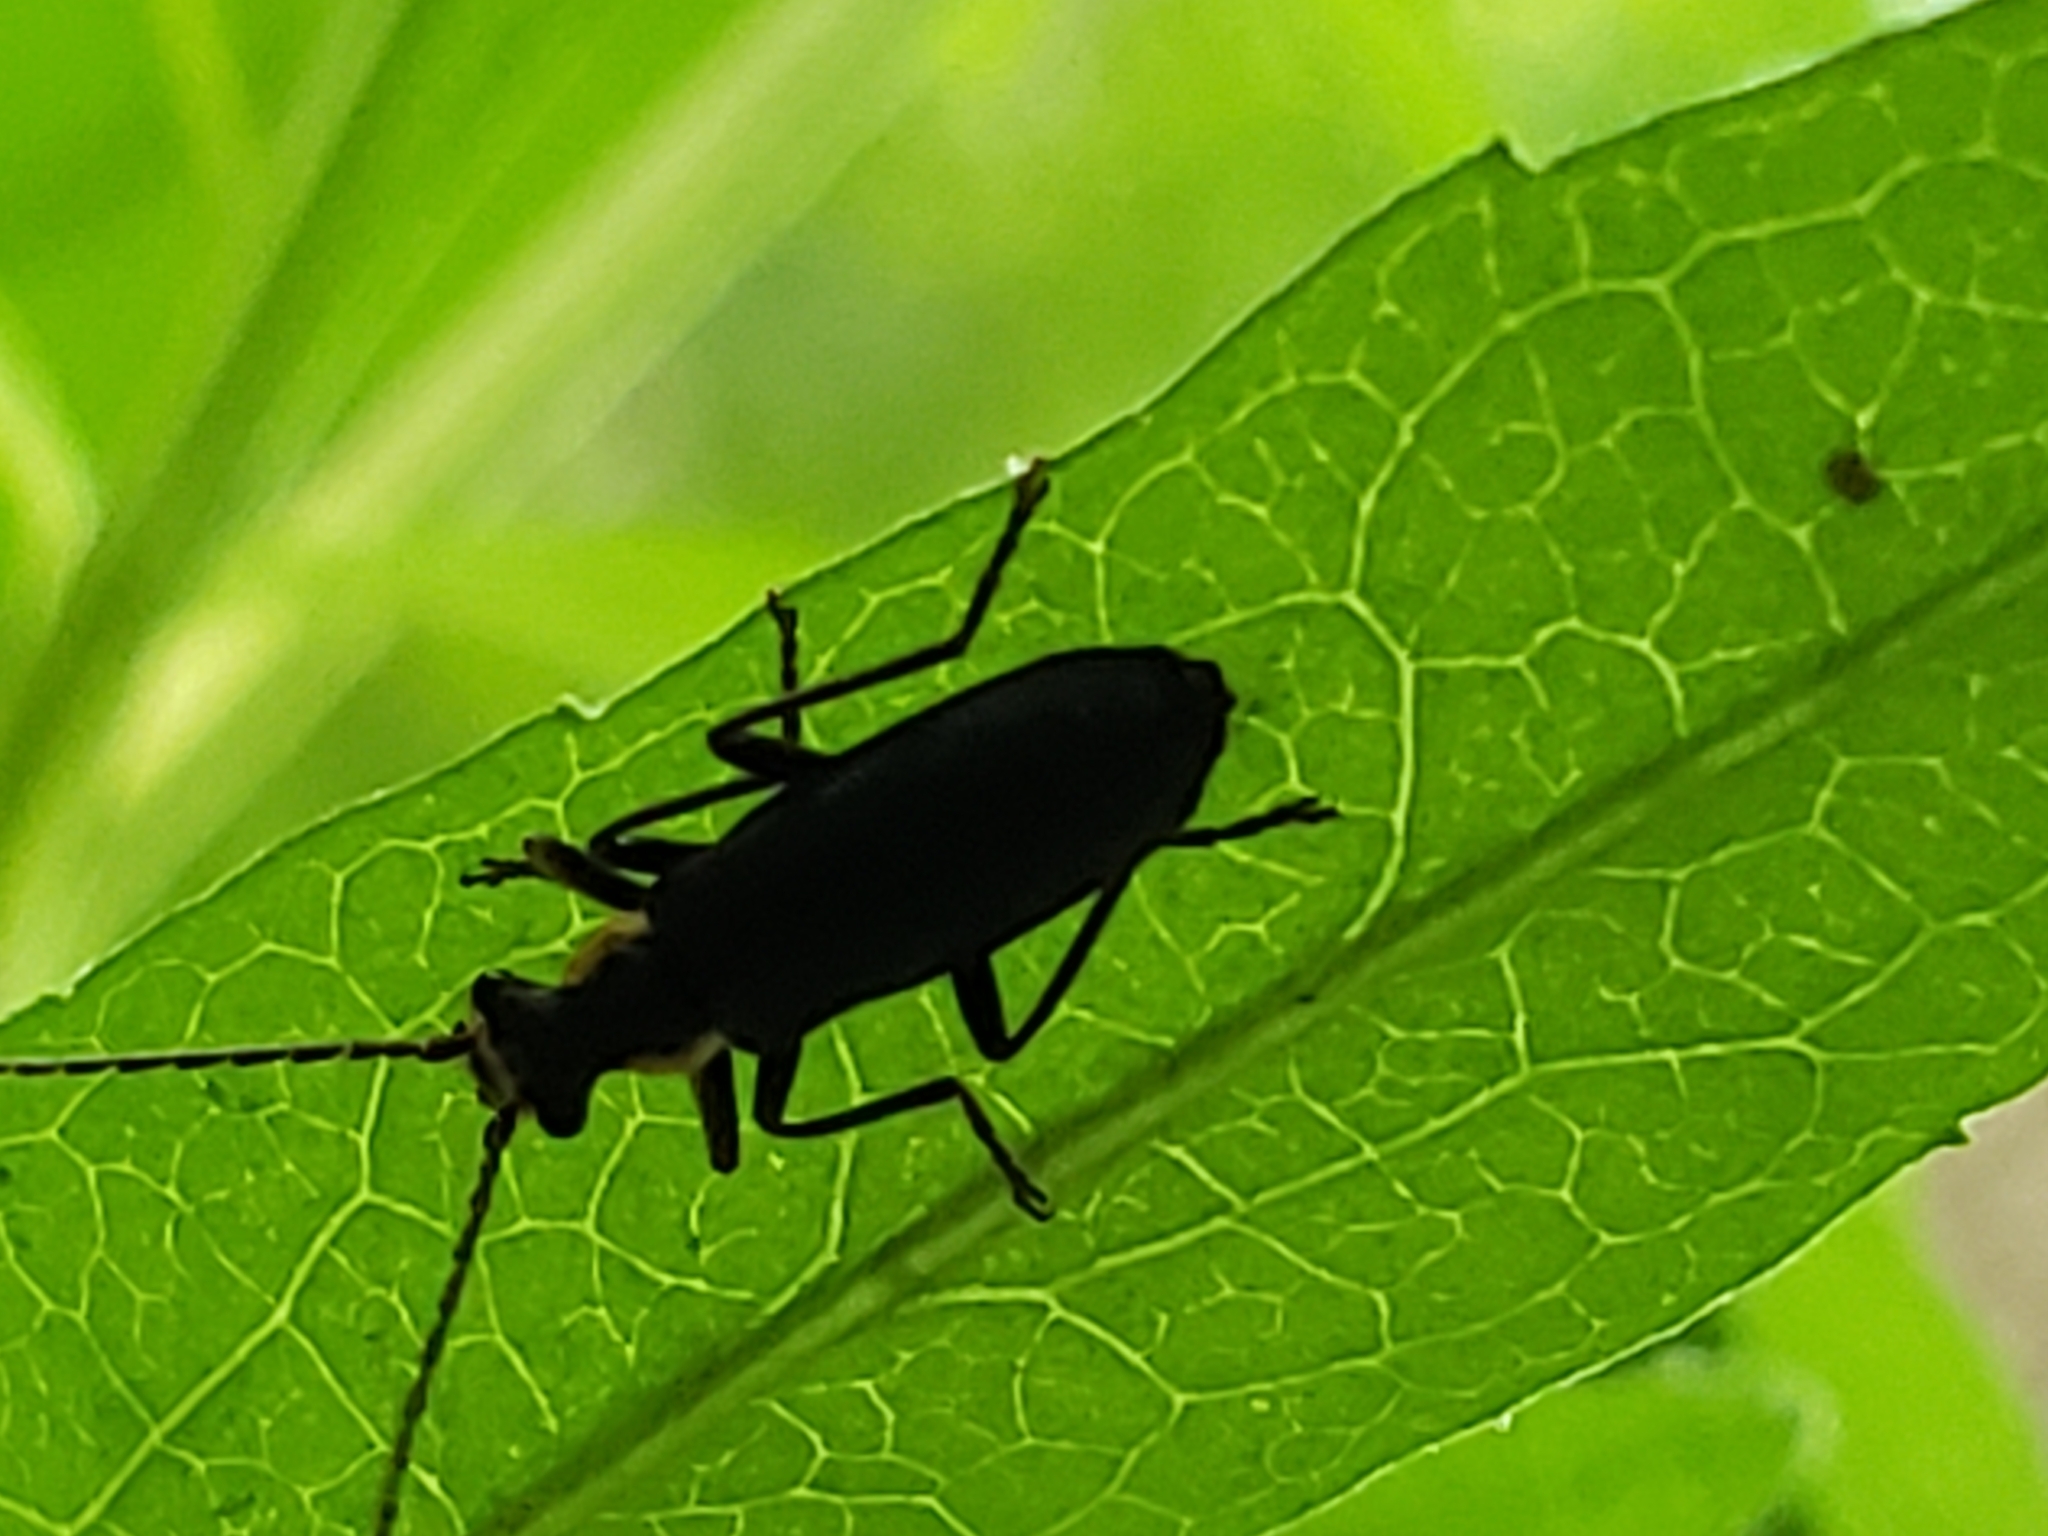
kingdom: Animalia
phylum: Arthropoda
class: Insecta
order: Coleoptera
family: Cantharidae
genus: Podabrus
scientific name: Podabrus rugosulus
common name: Wrinkled soldier beetle
